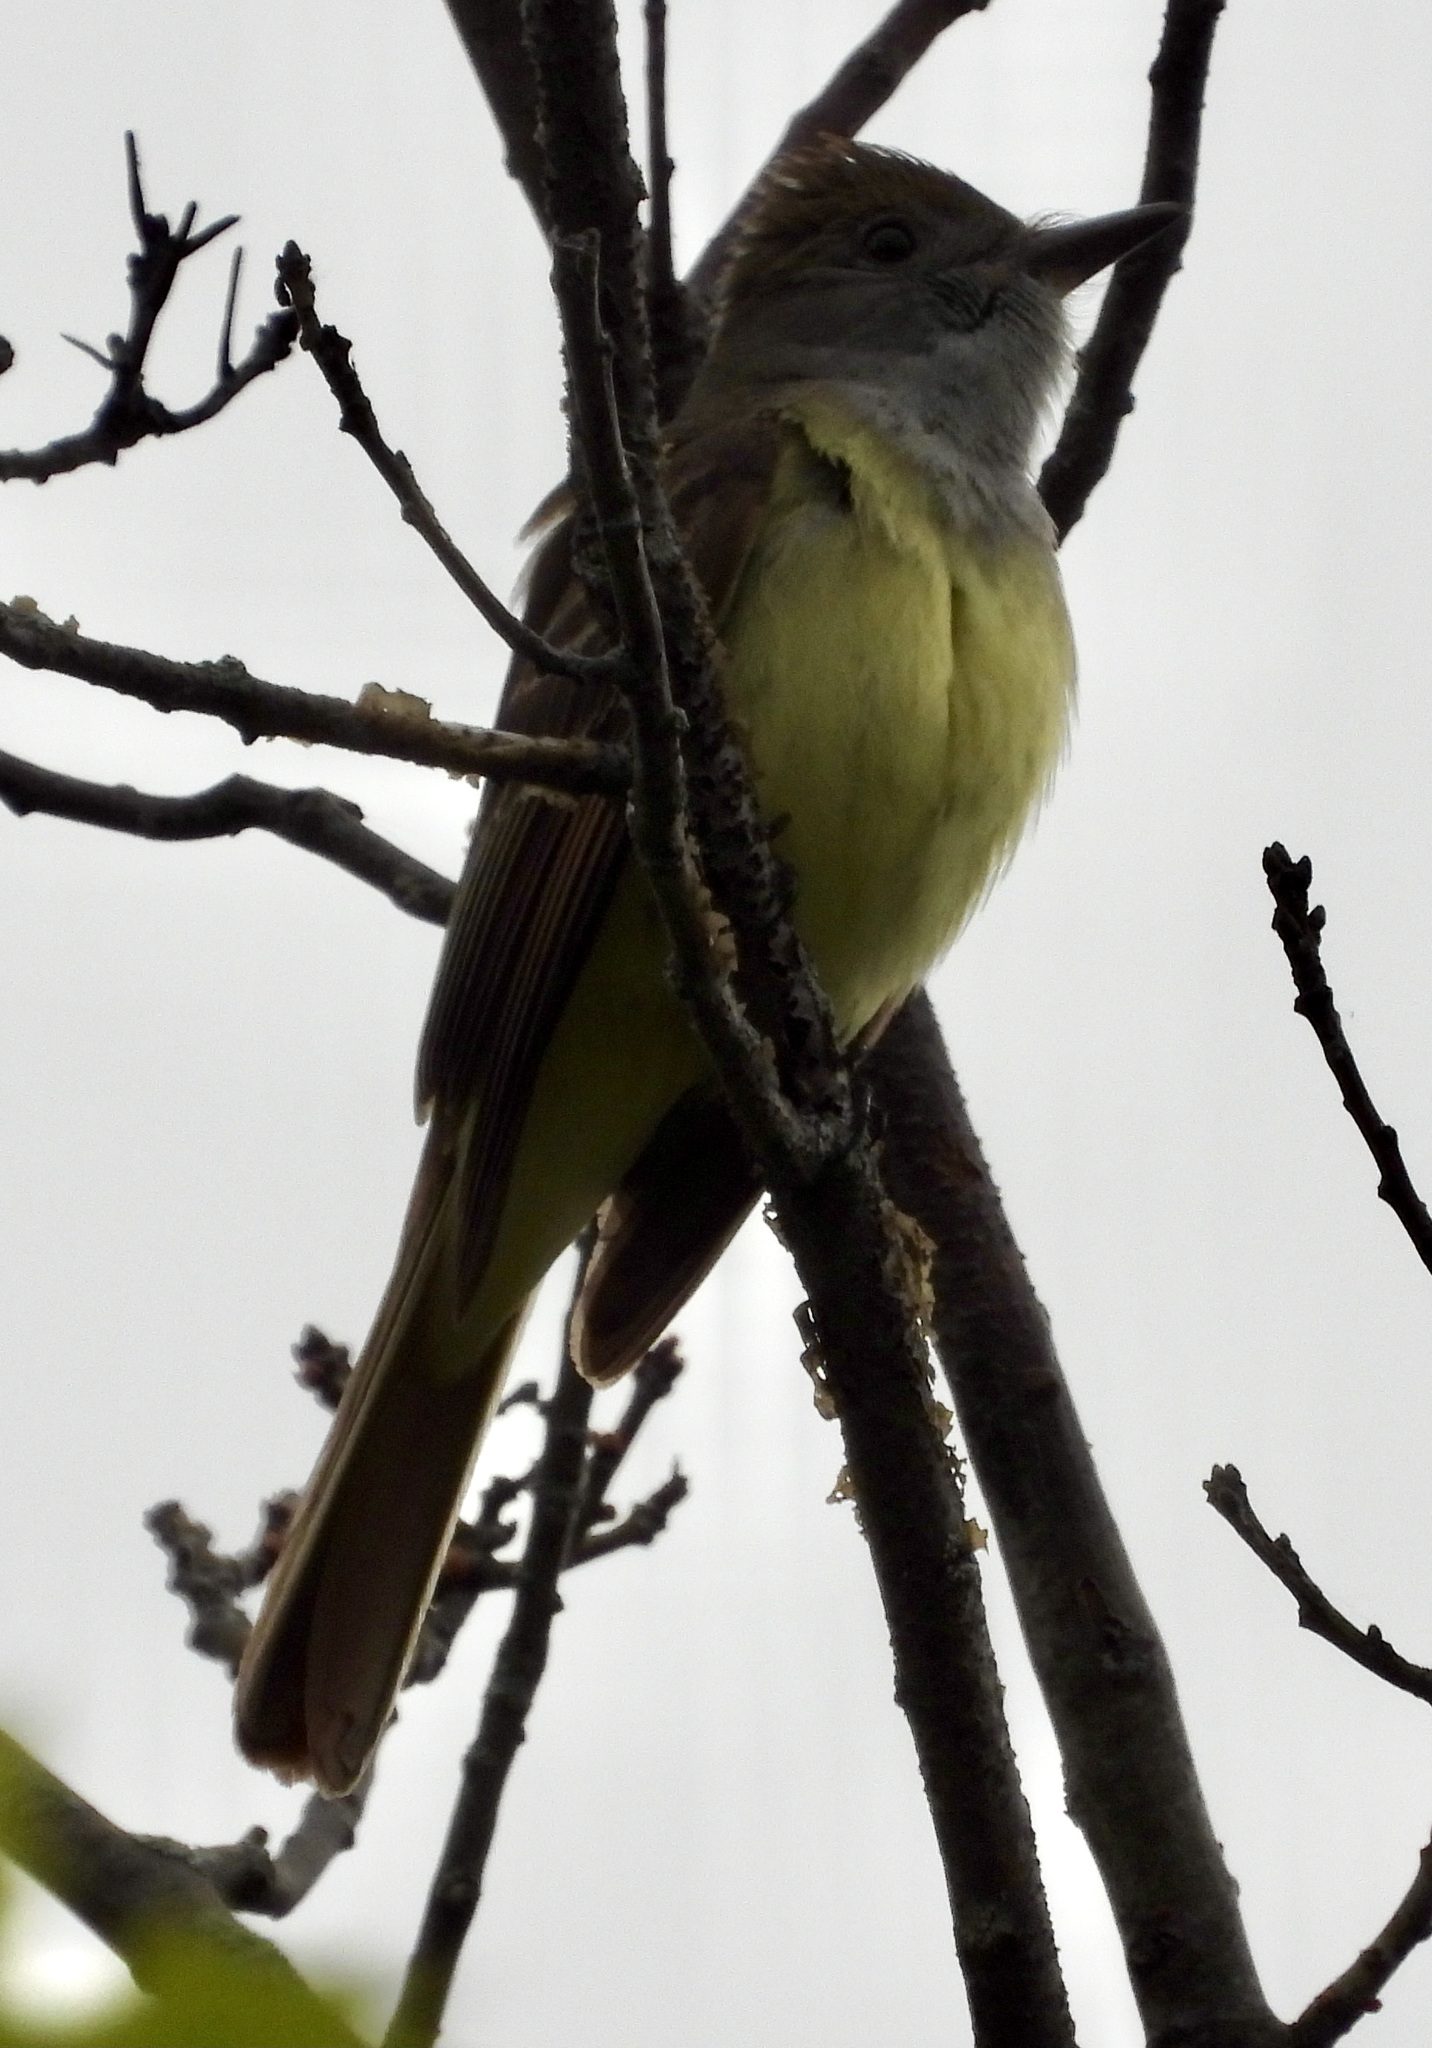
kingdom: Animalia
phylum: Chordata
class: Aves
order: Passeriformes
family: Tyrannidae
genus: Myiarchus
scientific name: Myiarchus crinitus
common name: Great crested flycatcher
